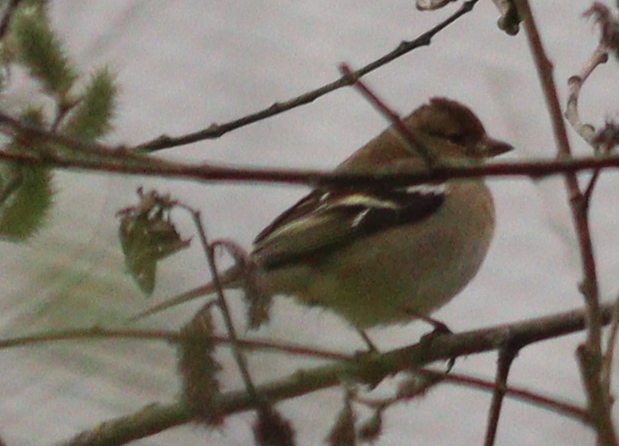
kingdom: Animalia
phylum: Chordata
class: Aves
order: Passeriformes
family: Fringillidae
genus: Fringilla
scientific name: Fringilla coelebs
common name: Common chaffinch
